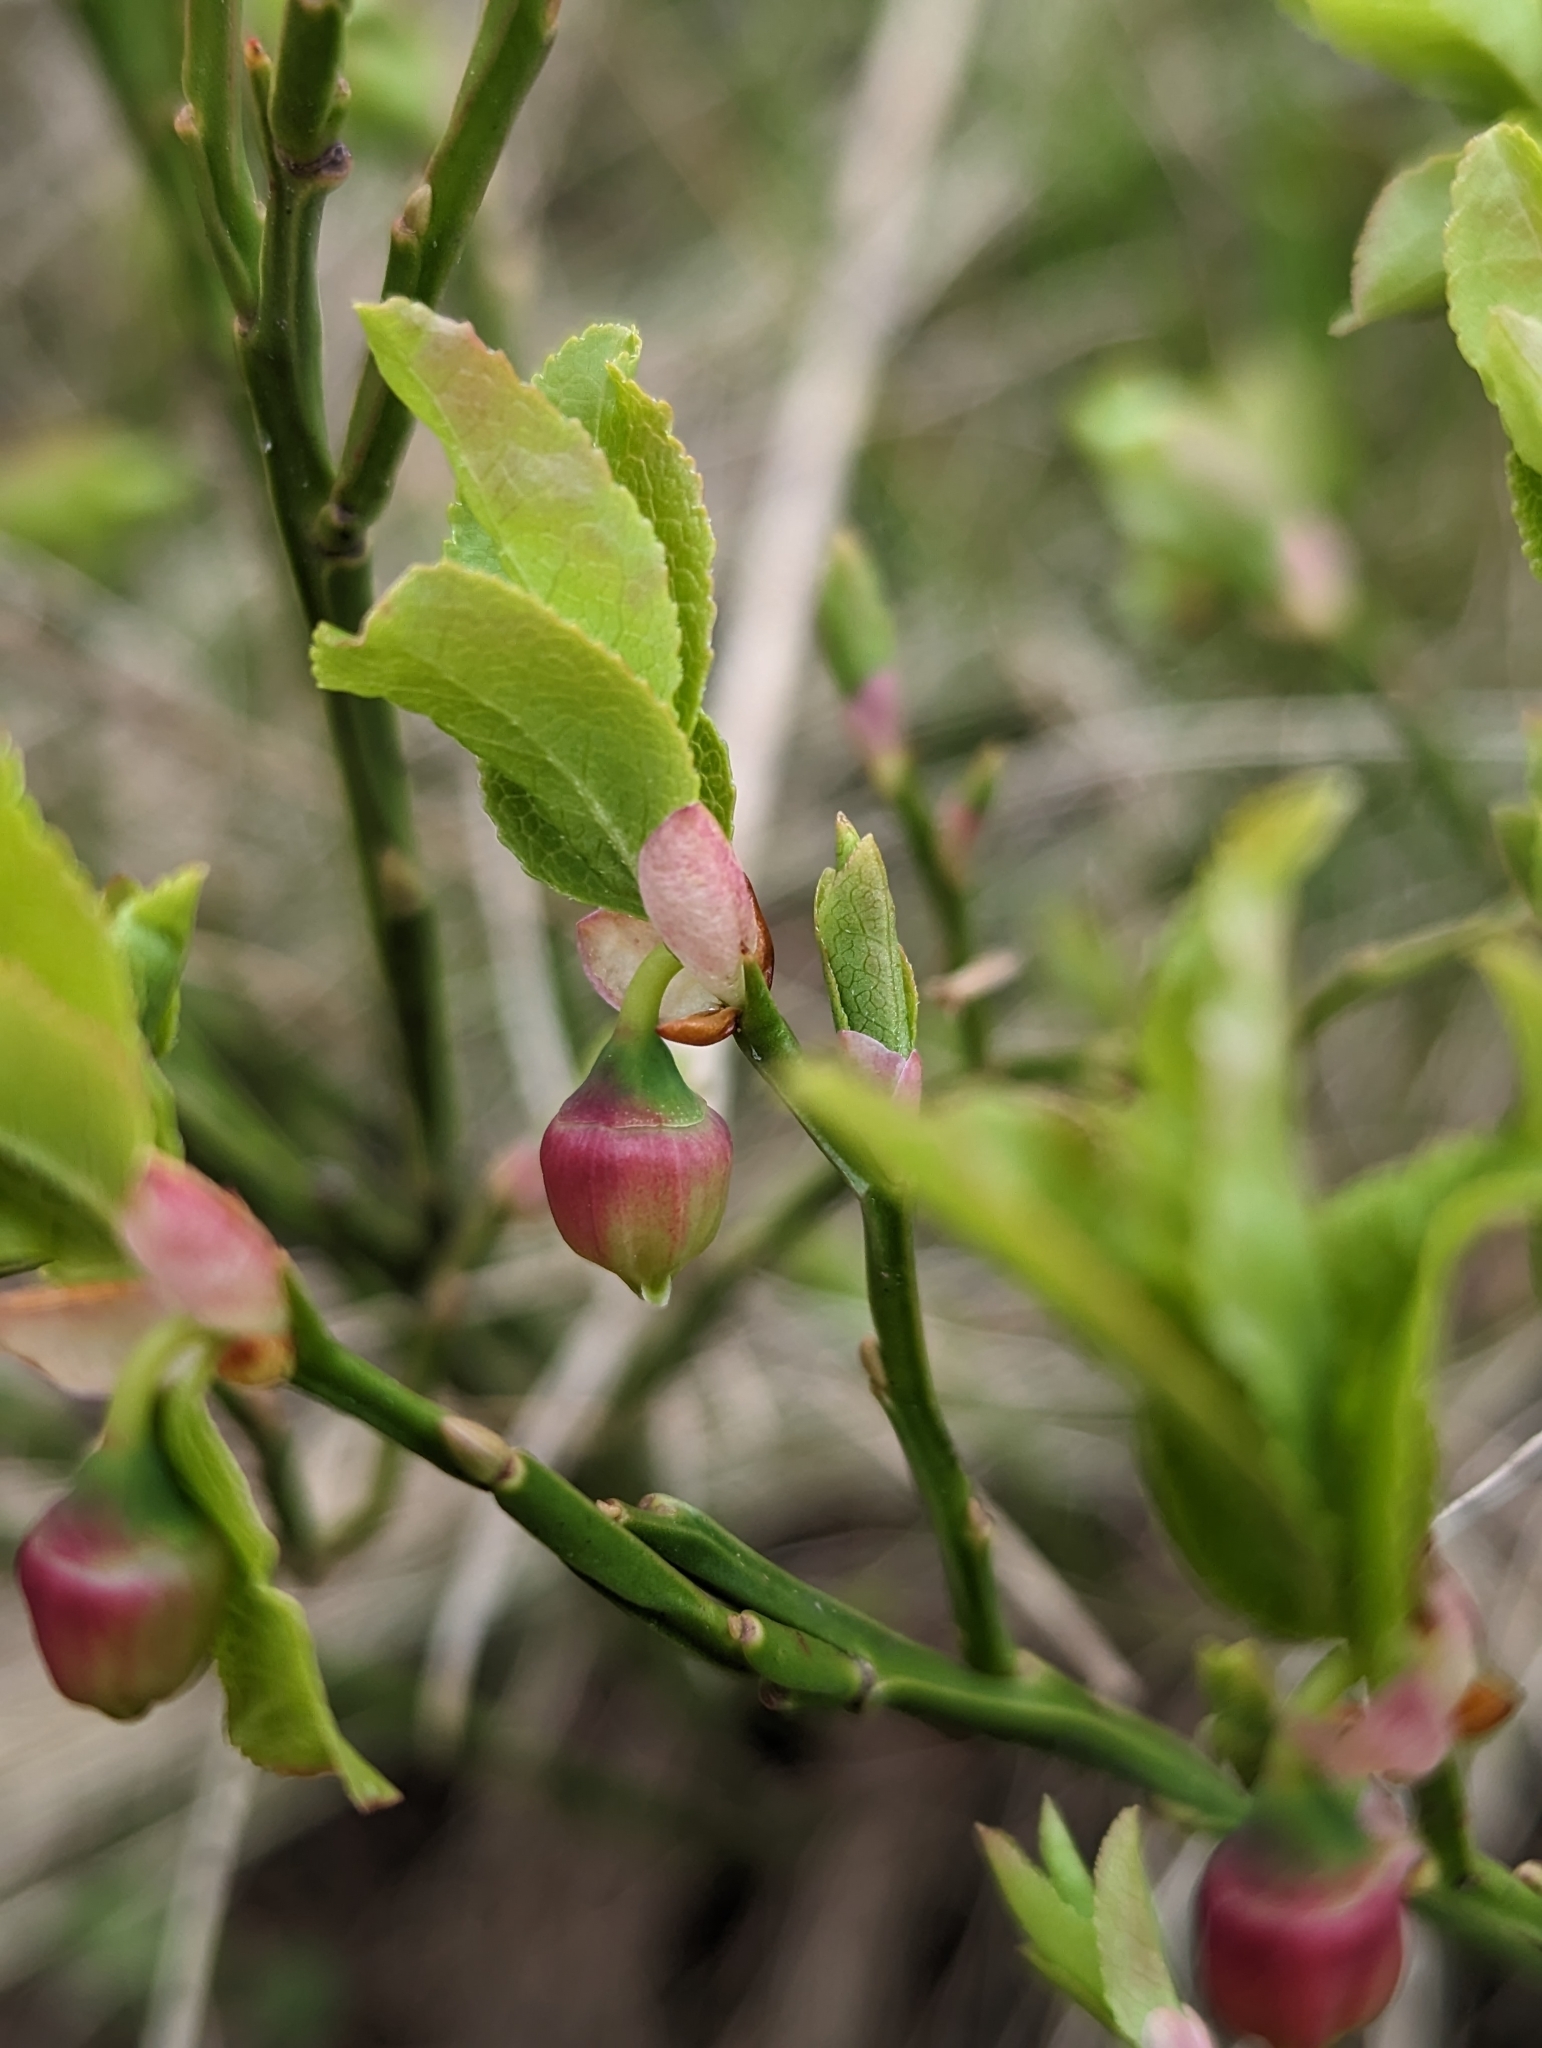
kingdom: Plantae
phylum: Tracheophyta
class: Magnoliopsida
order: Ericales
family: Ericaceae
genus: Vaccinium
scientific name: Vaccinium myrtillus
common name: Bilberry
